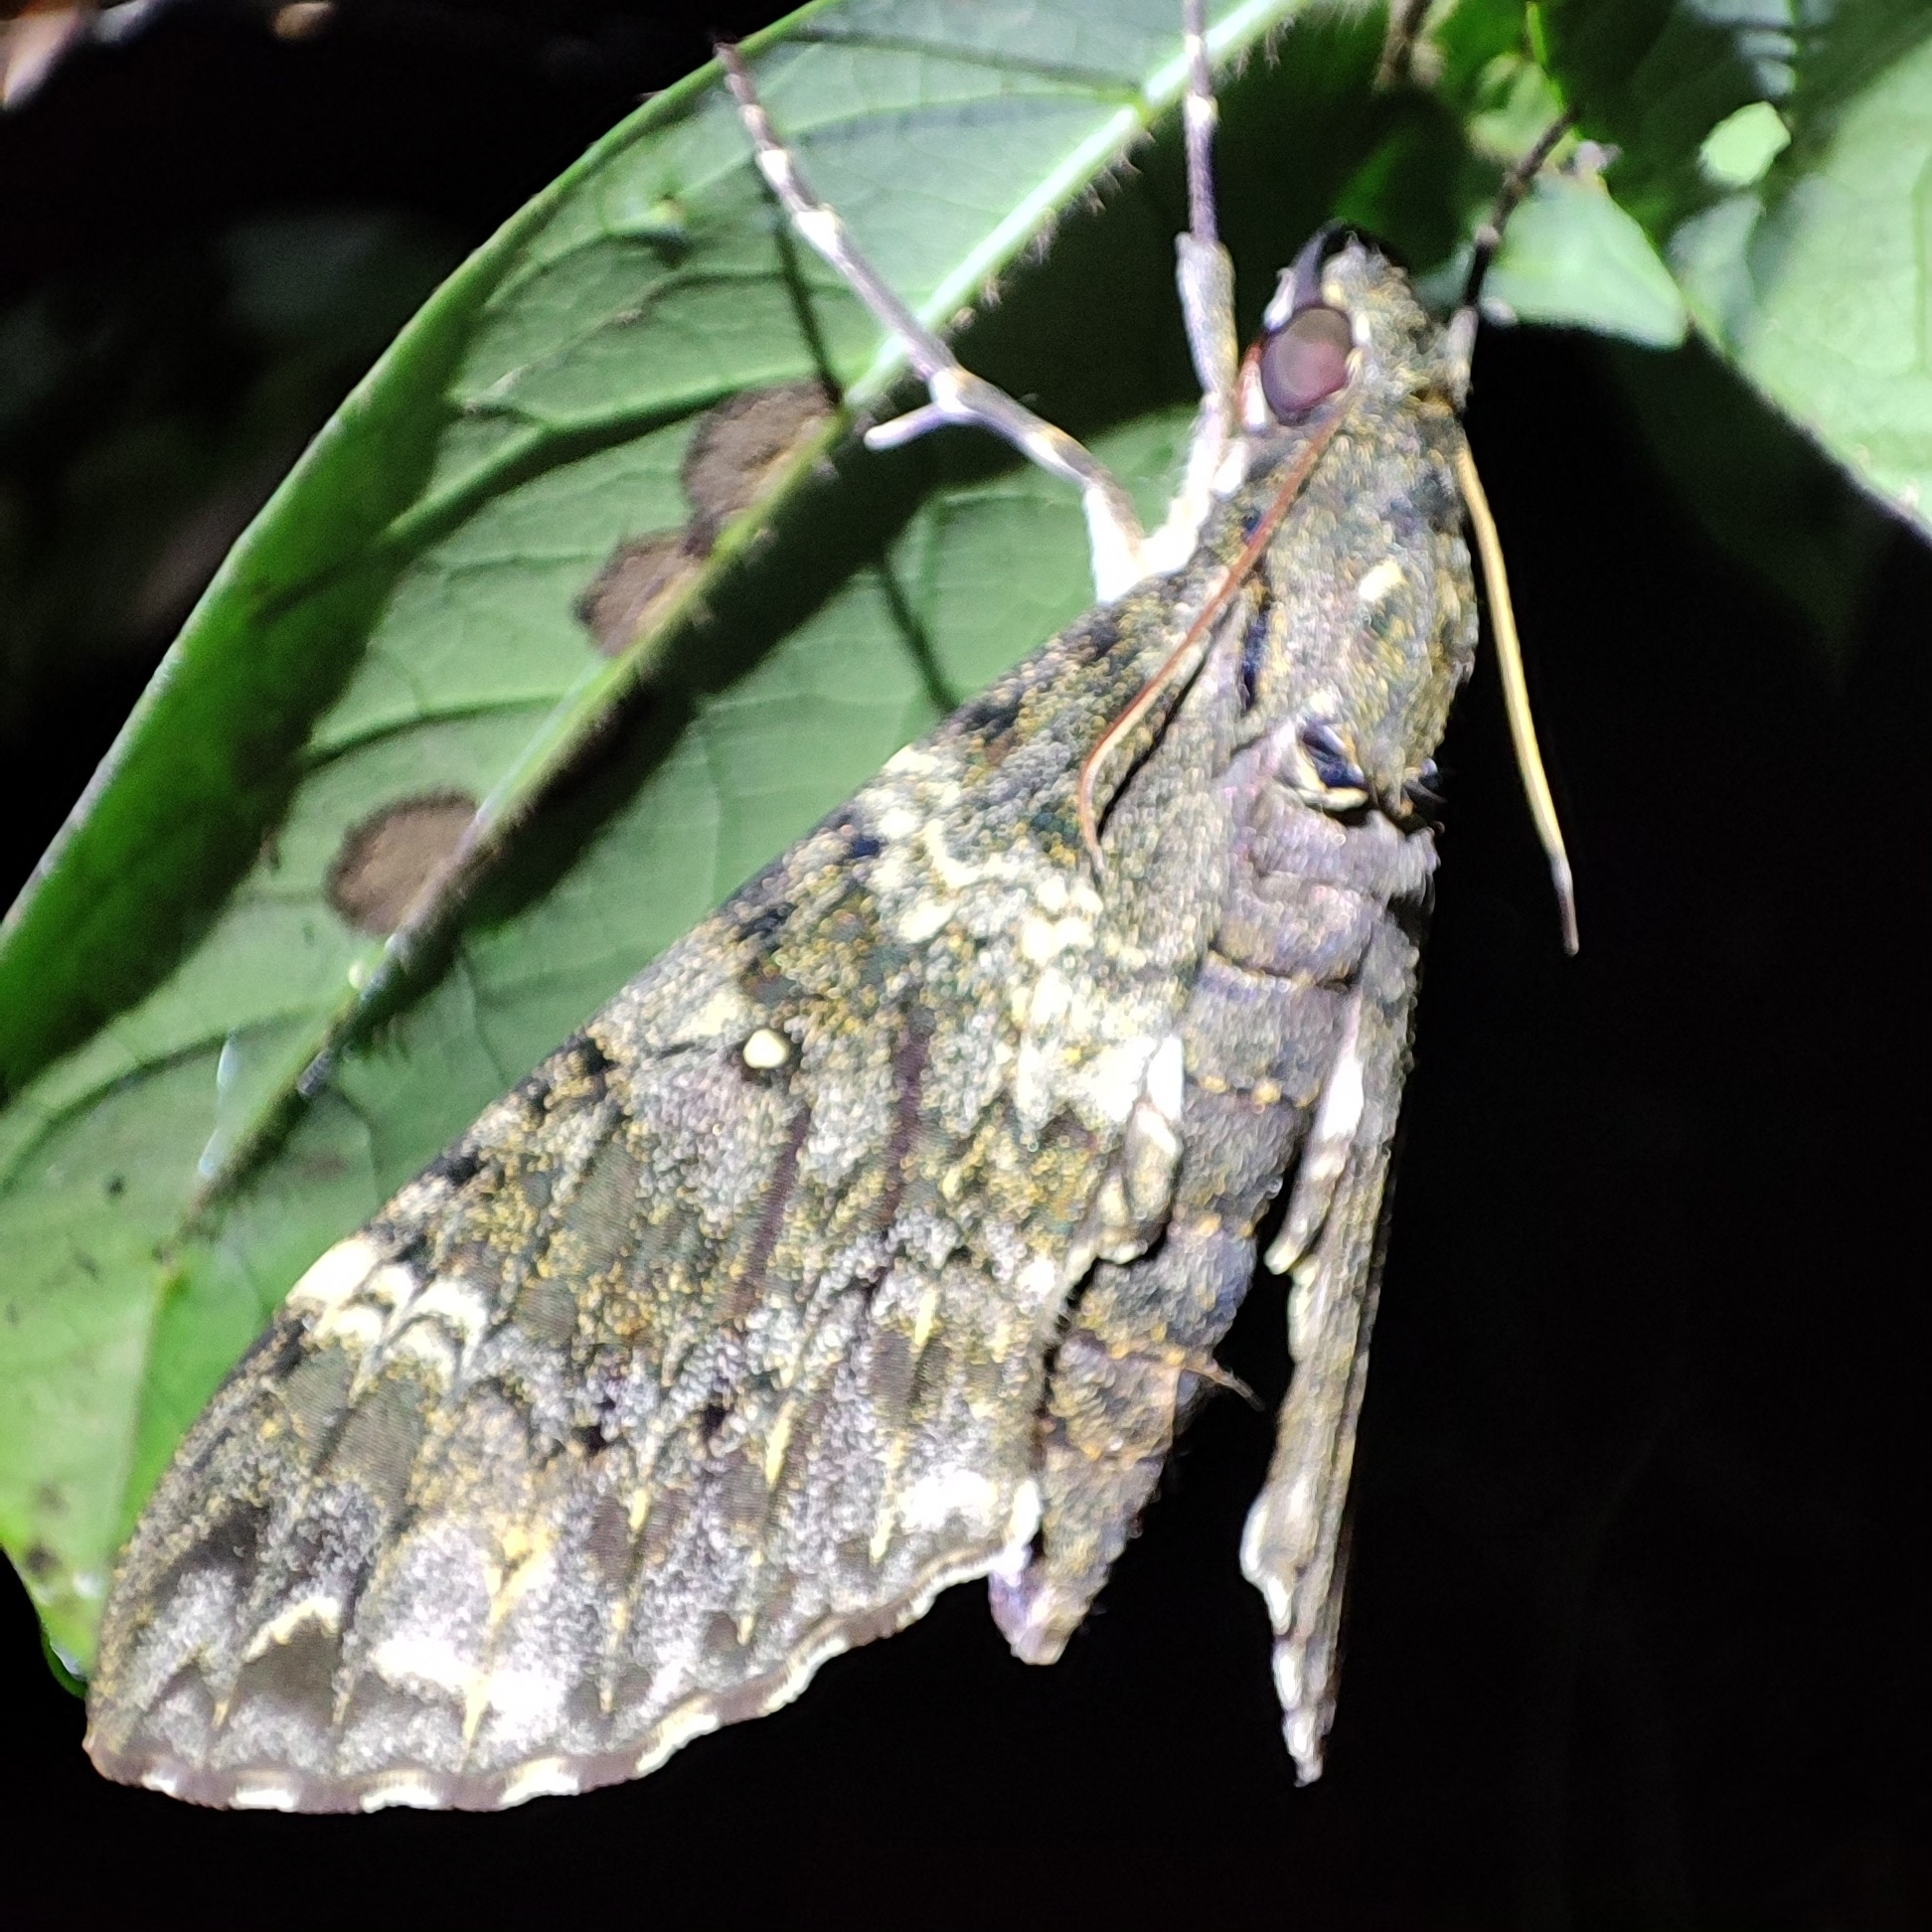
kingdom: Animalia
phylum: Arthropoda
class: Insecta
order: Lepidoptera
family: Sphingidae
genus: Meganoton
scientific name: Meganoton nyctiphanes
